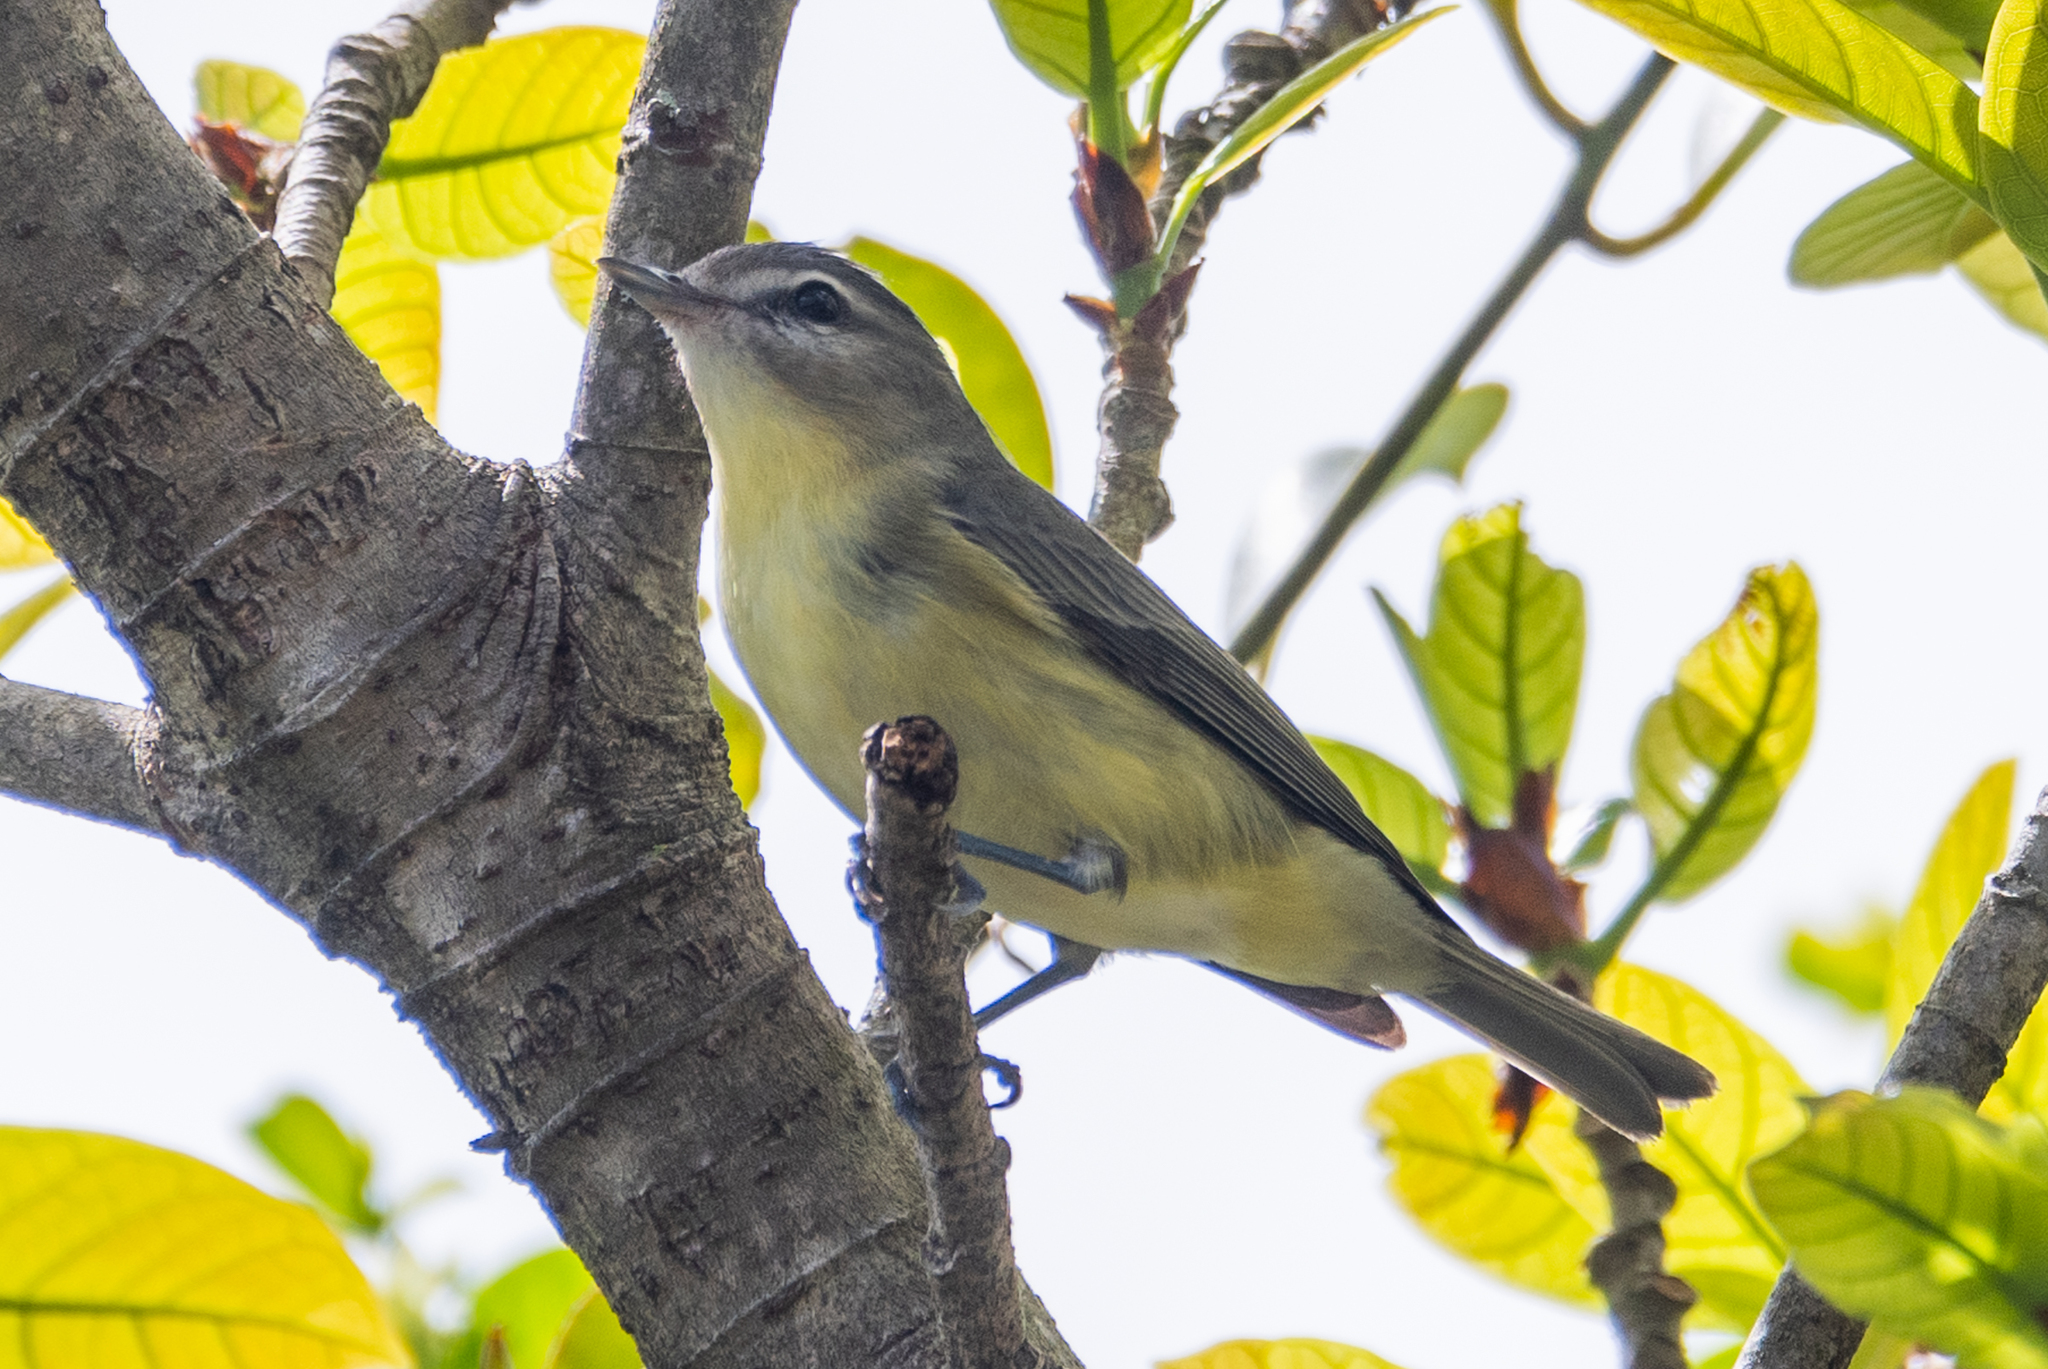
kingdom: Animalia
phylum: Chordata
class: Aves
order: Passeriformes
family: Vireonidae
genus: Vireo
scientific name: Vireo philadelphicus
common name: Philadelphia vireo
